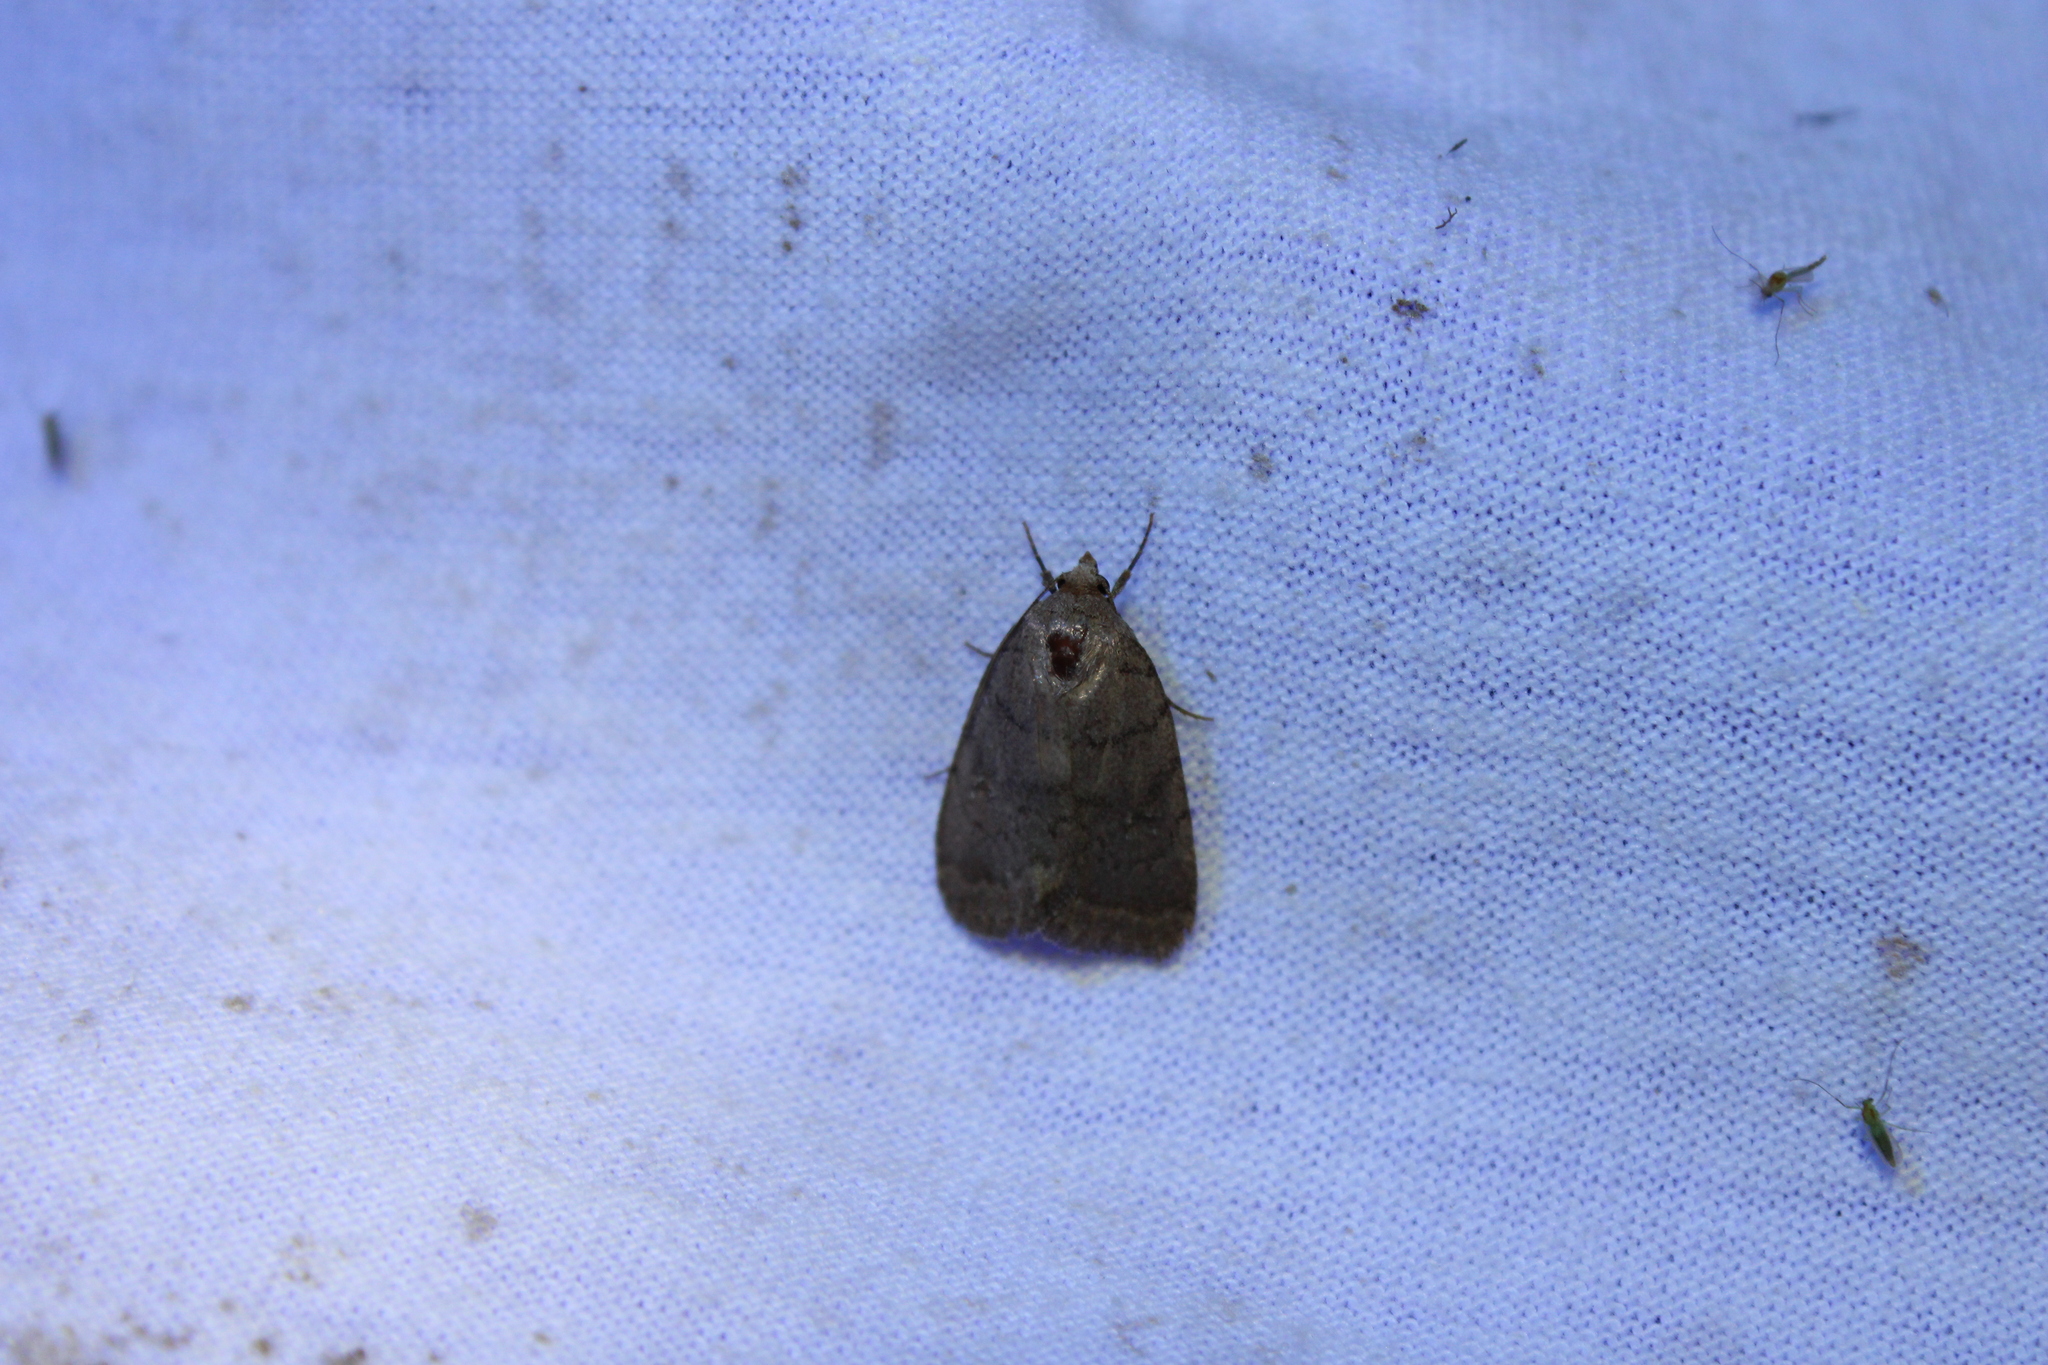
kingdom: Animalia
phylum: Arthropoda
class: Insecta
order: Lepidoptera
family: Noctuidae
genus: Athetis
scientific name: Athetis tarda
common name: Slowpoke moth
